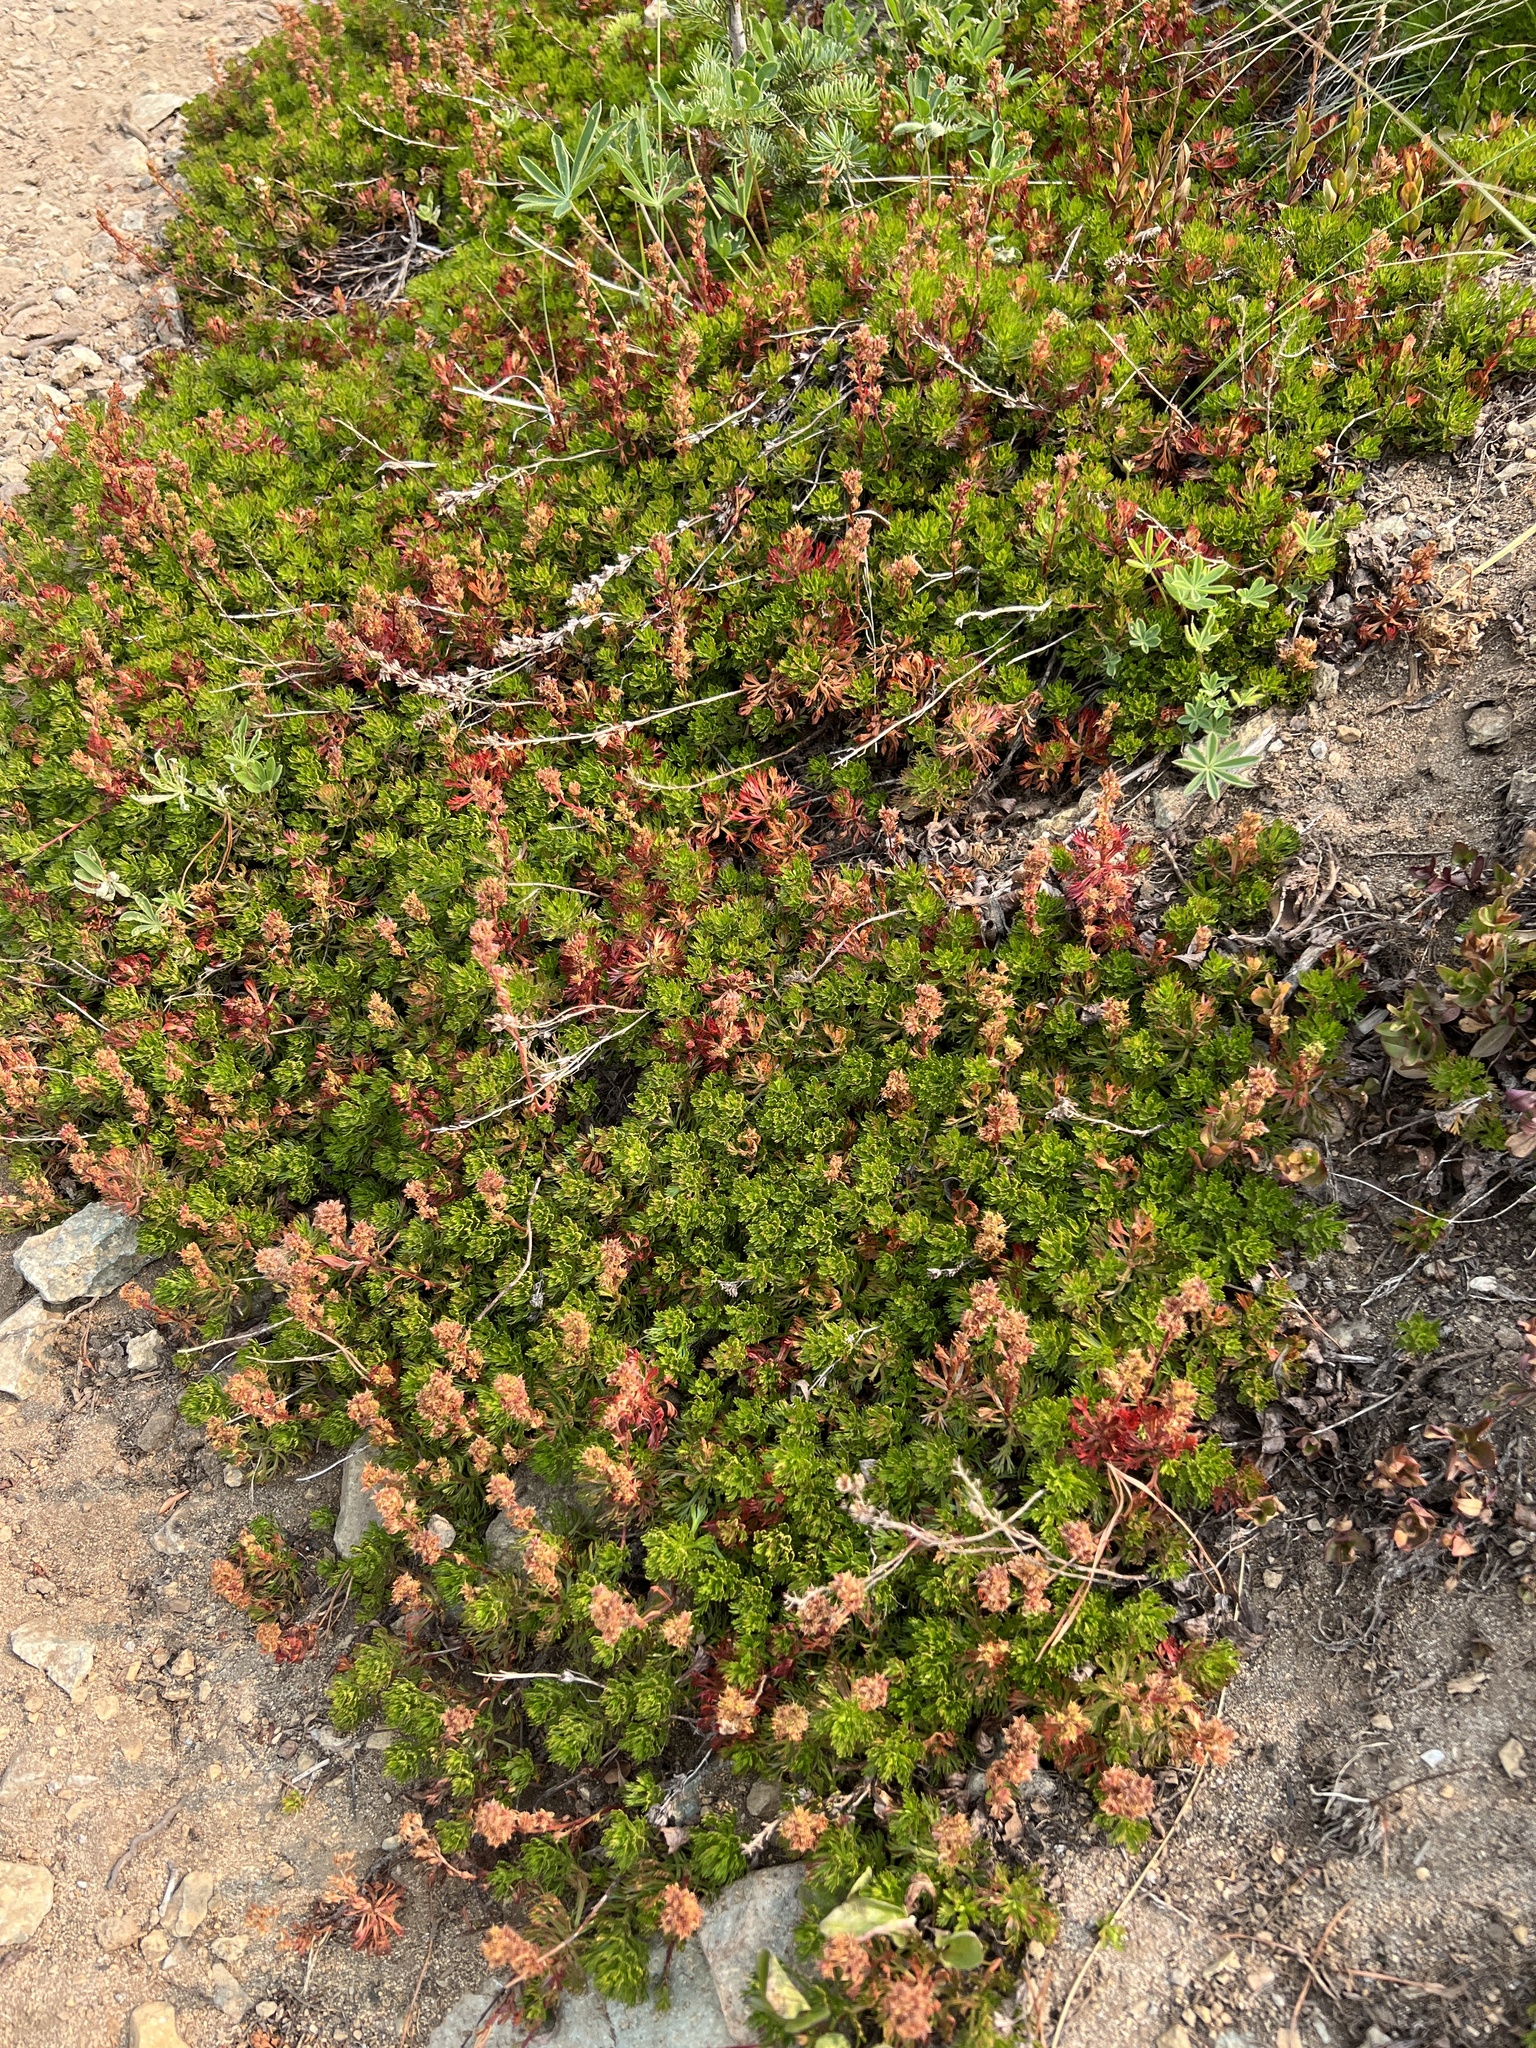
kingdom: Plantae
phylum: Tracheophyta
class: Magnoliopsida
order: Rosales
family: Rosaceae
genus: Luetkea
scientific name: Luetkea pectinata
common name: Partridgefoot
